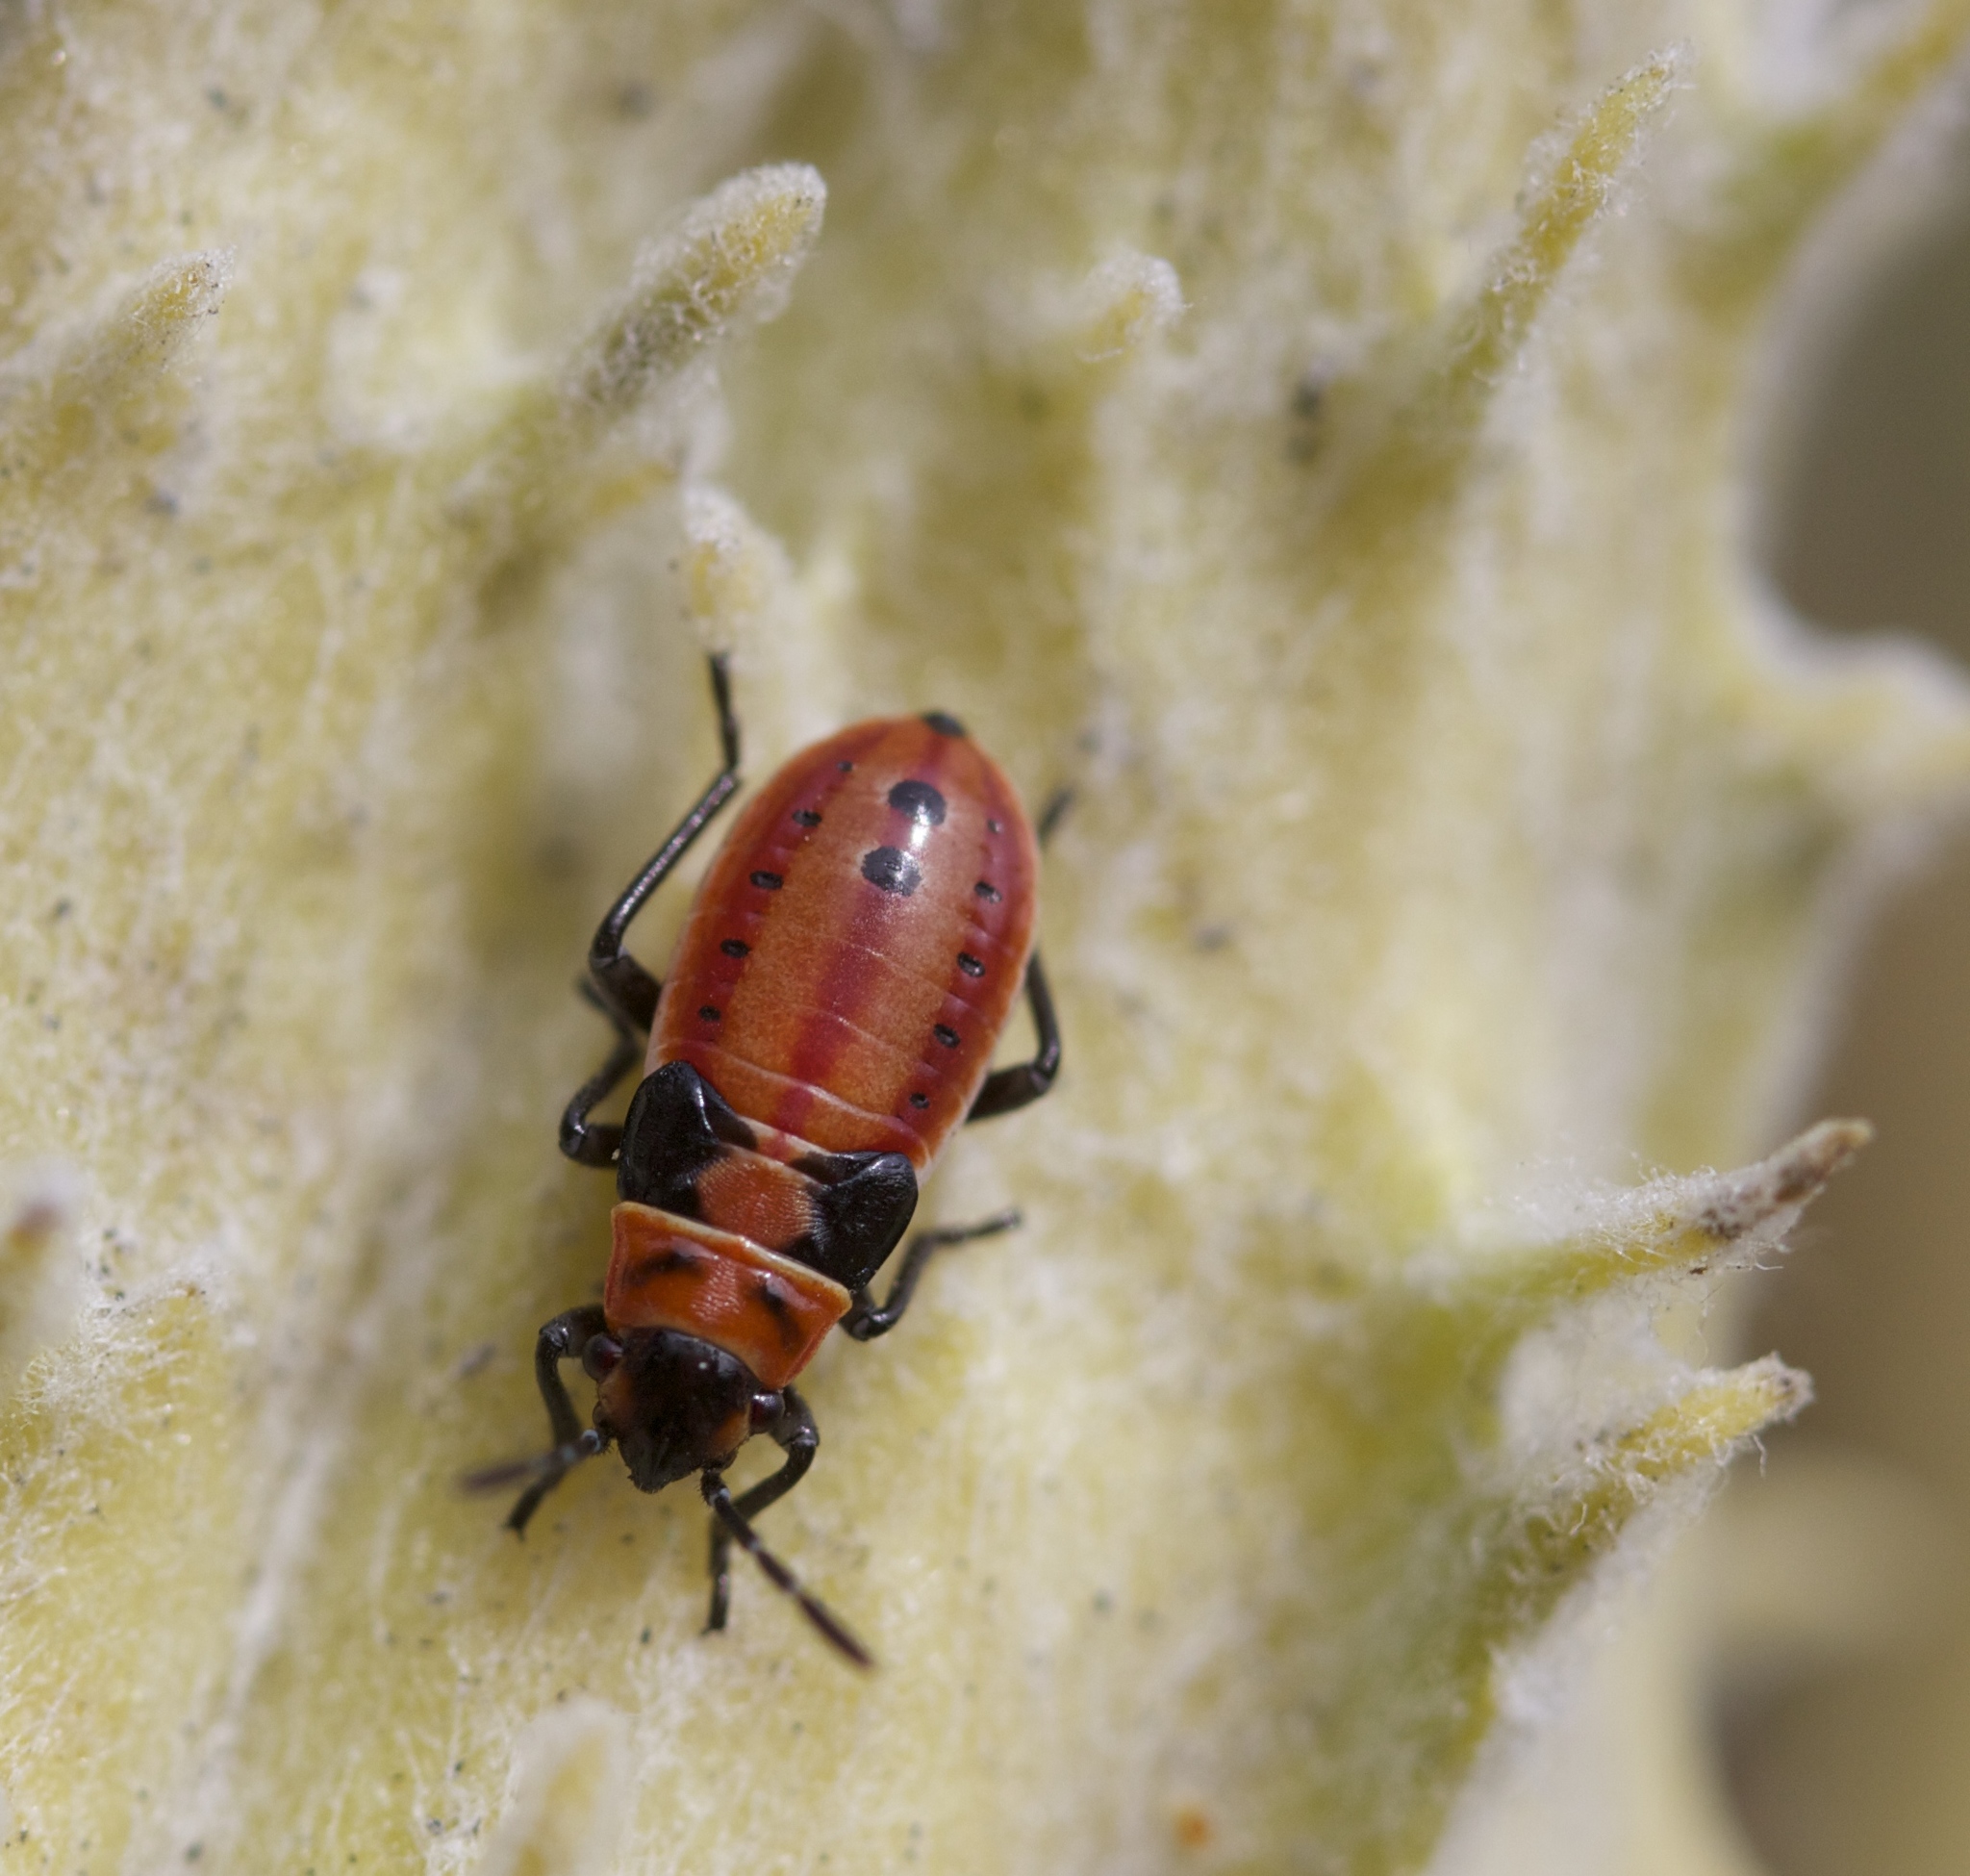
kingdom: Animalia
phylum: Arthropoda
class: Insecta
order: Hemiptera
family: Lygaeidae
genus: Lygaeus
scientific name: Lygaeus kalmii
